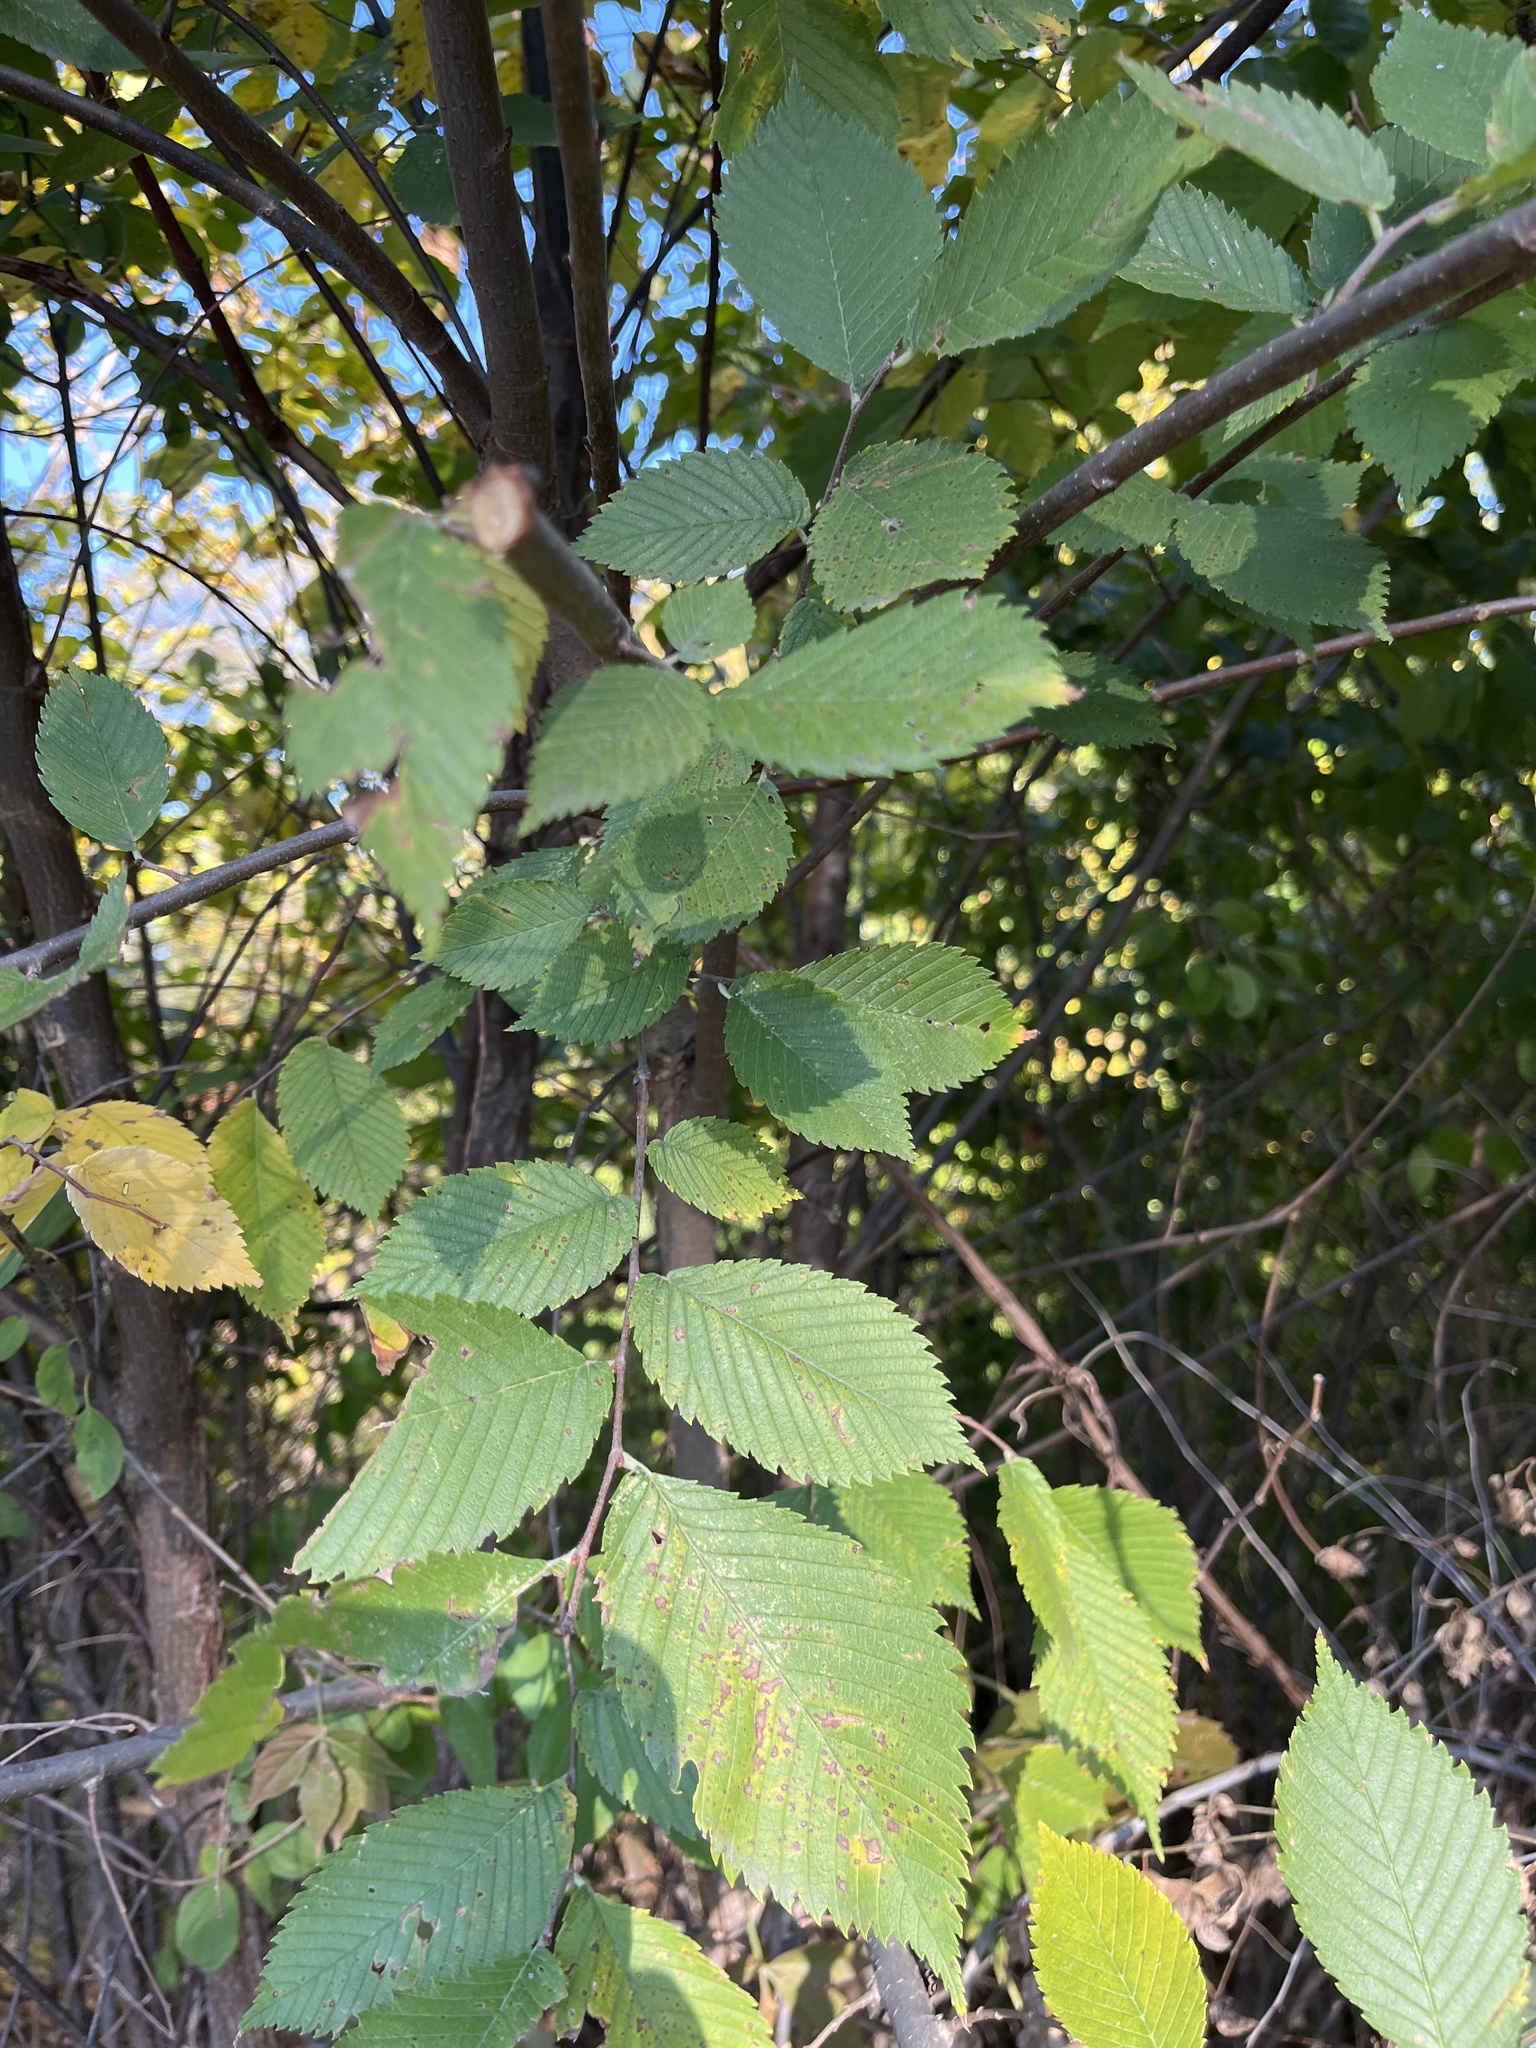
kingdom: Plantae
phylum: Tracheophyta
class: Magnoliopsida
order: Rosales
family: Ulmaceae
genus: Ulmus
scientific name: Ulmus americana
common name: American elm
